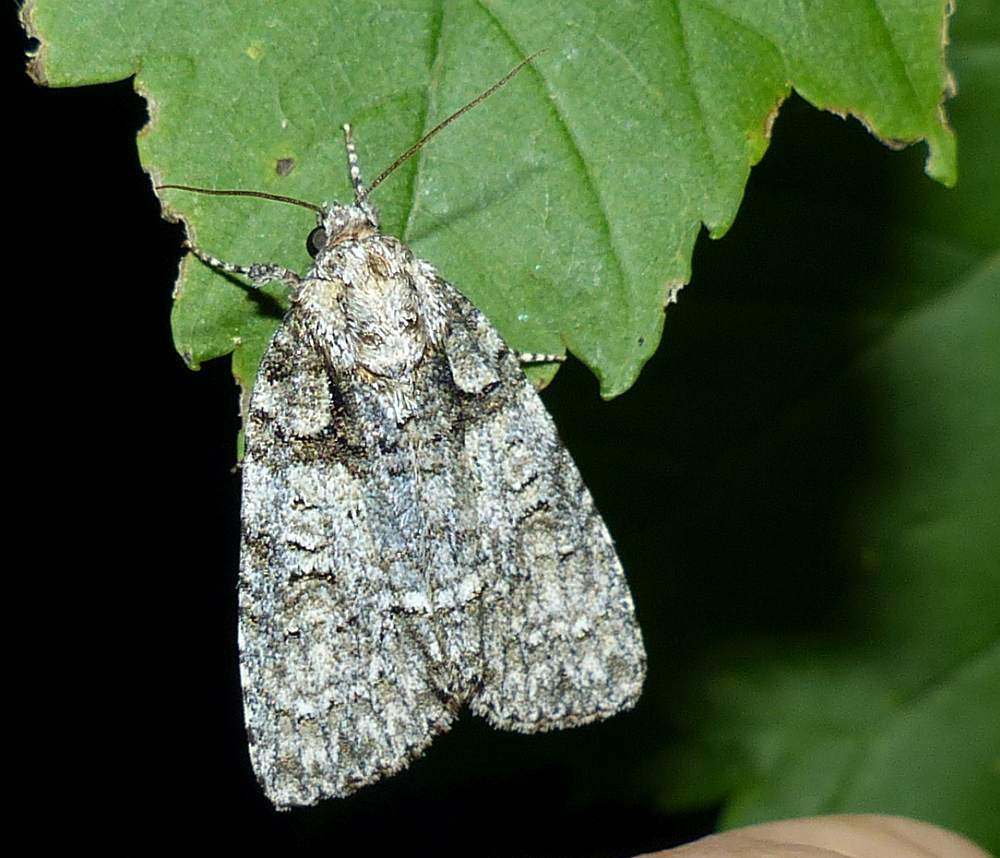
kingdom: Animalia
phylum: Arthropoda
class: Insecta
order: Lepidoptera
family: Noctuidae
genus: Acronicta
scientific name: Acronicta increta
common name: Eclipsed oak dagger
